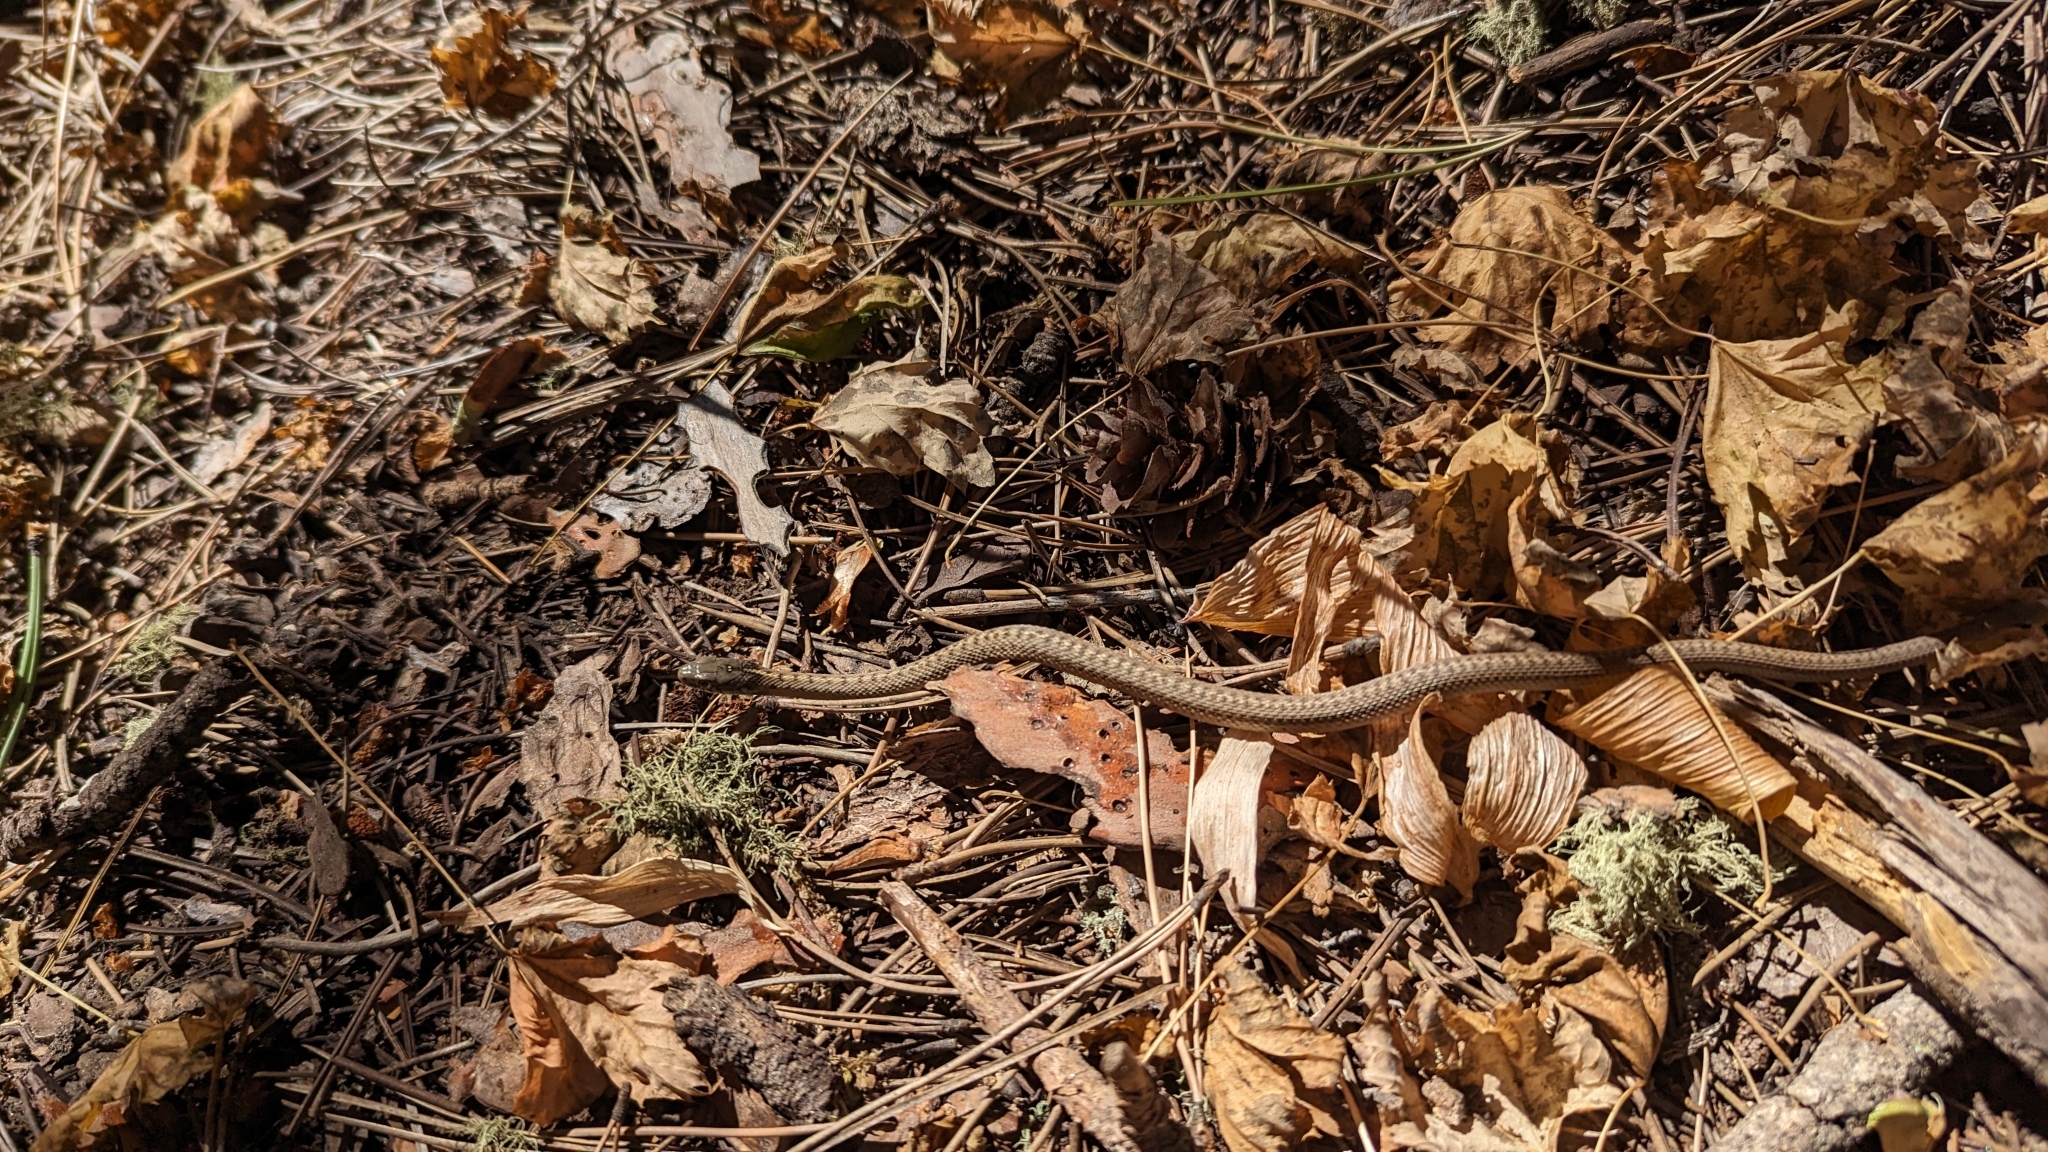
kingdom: Animalia
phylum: Chordata
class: Squamata
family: Colubridae
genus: Thamnophis
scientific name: Thamnophis elegans
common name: Western terrestrial garter snake
